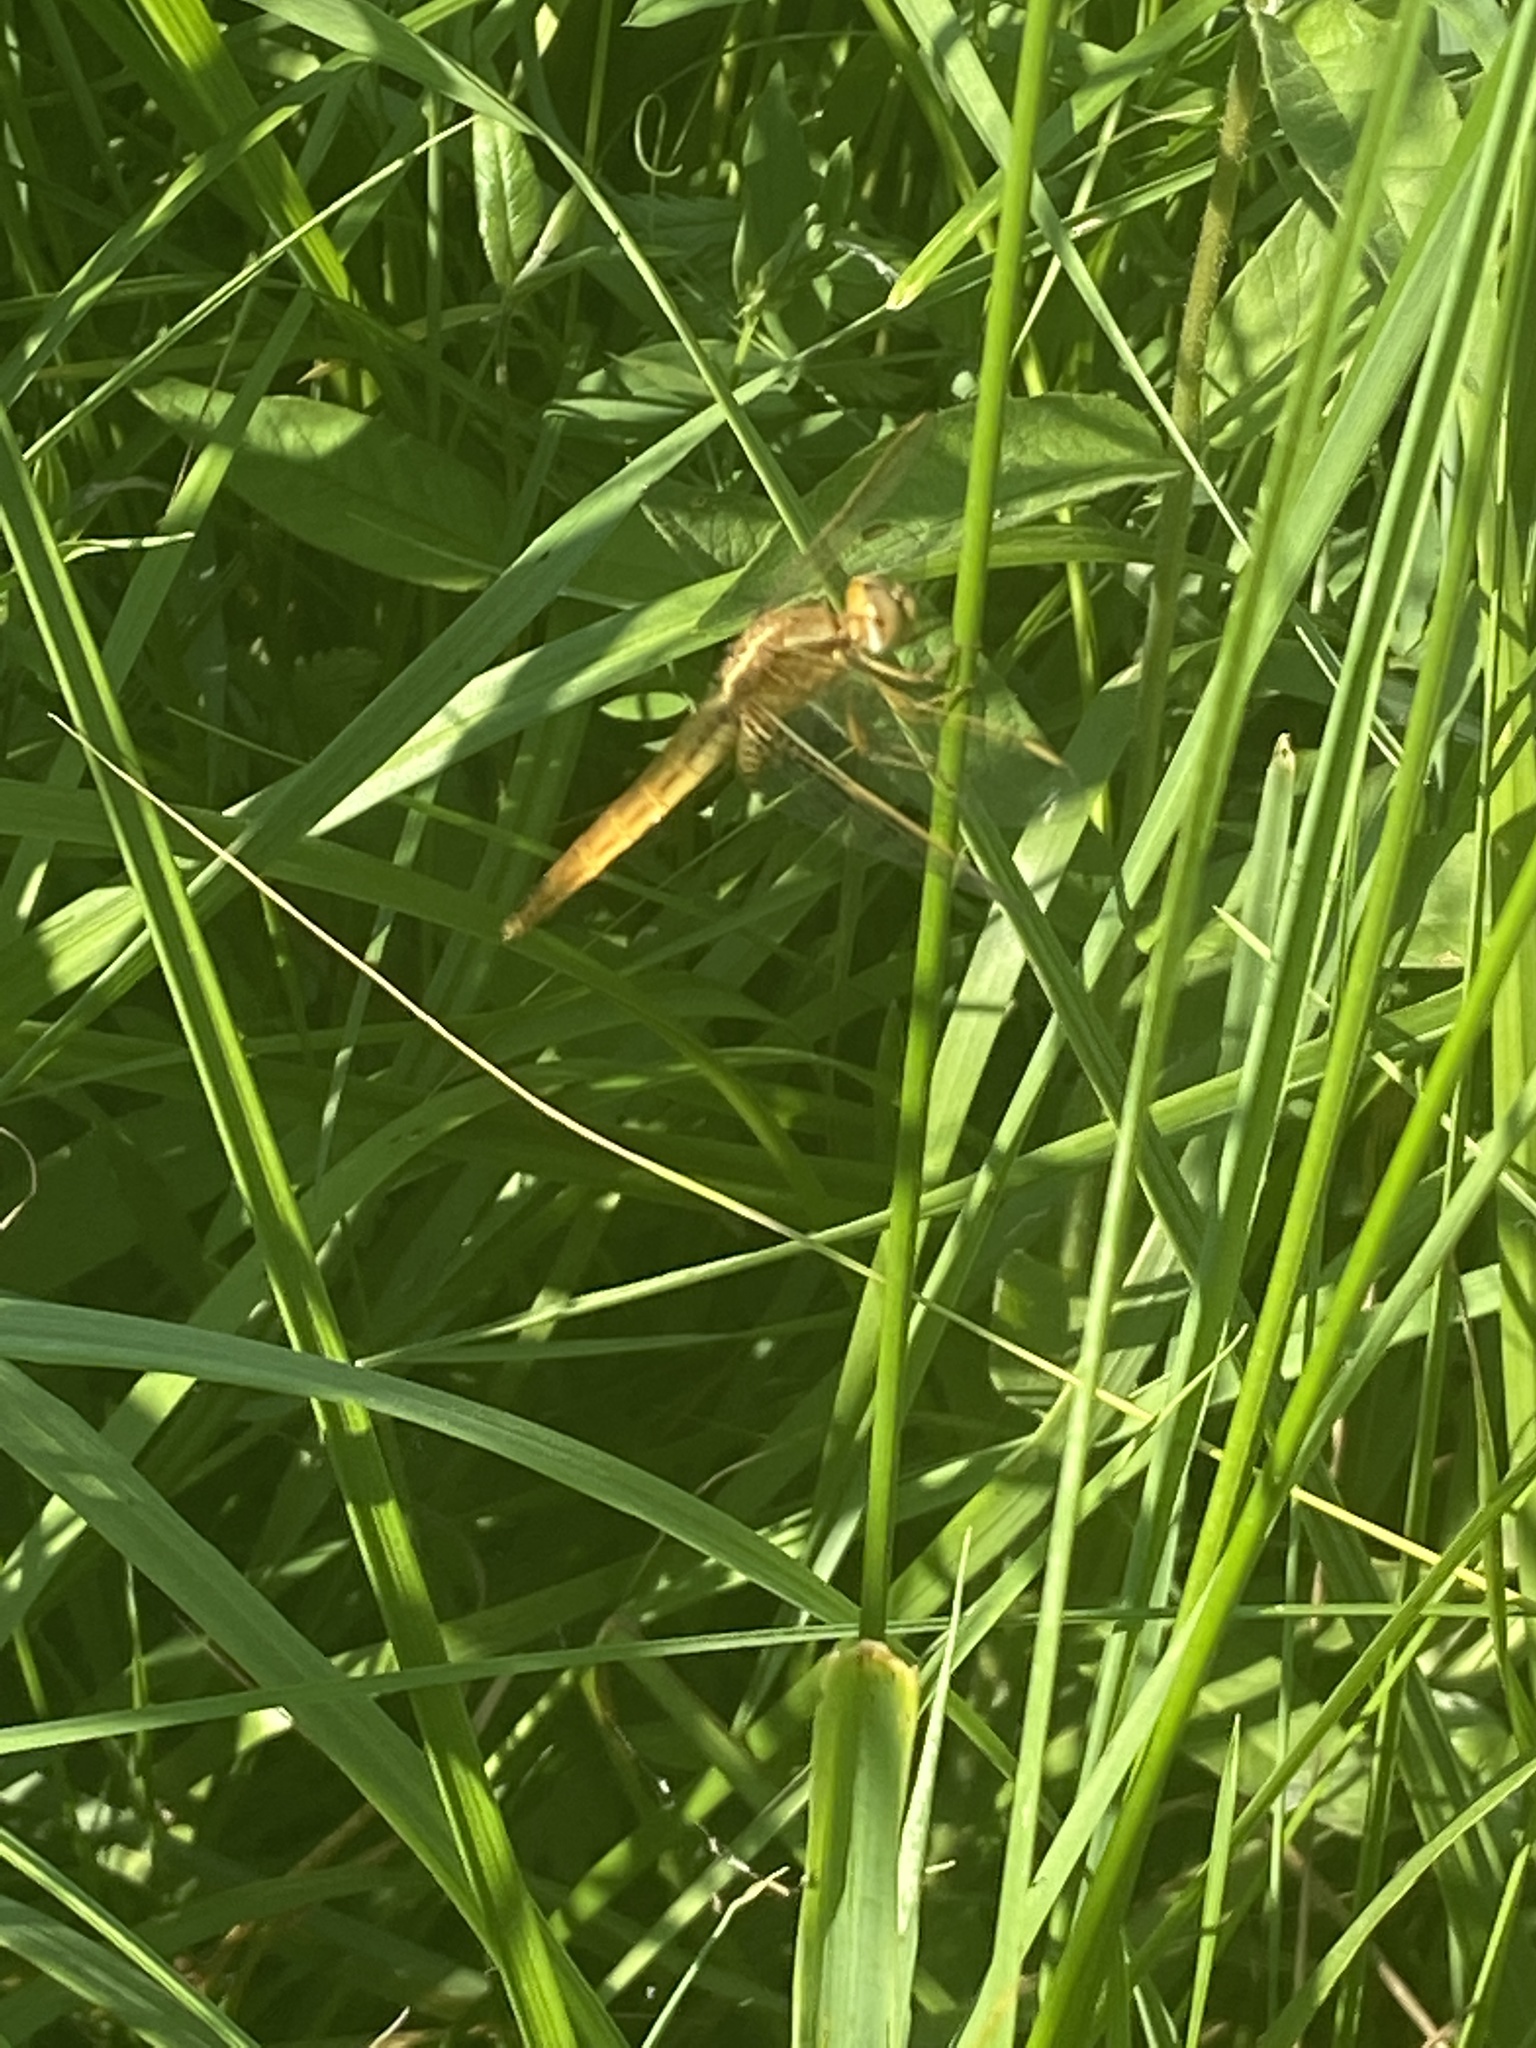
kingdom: Animalia
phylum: Arthropoda
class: Insecta
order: Odonata
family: Libellulidae
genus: Crocothemis
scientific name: Crocothemis erythraea
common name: Scarlet dragonfly
